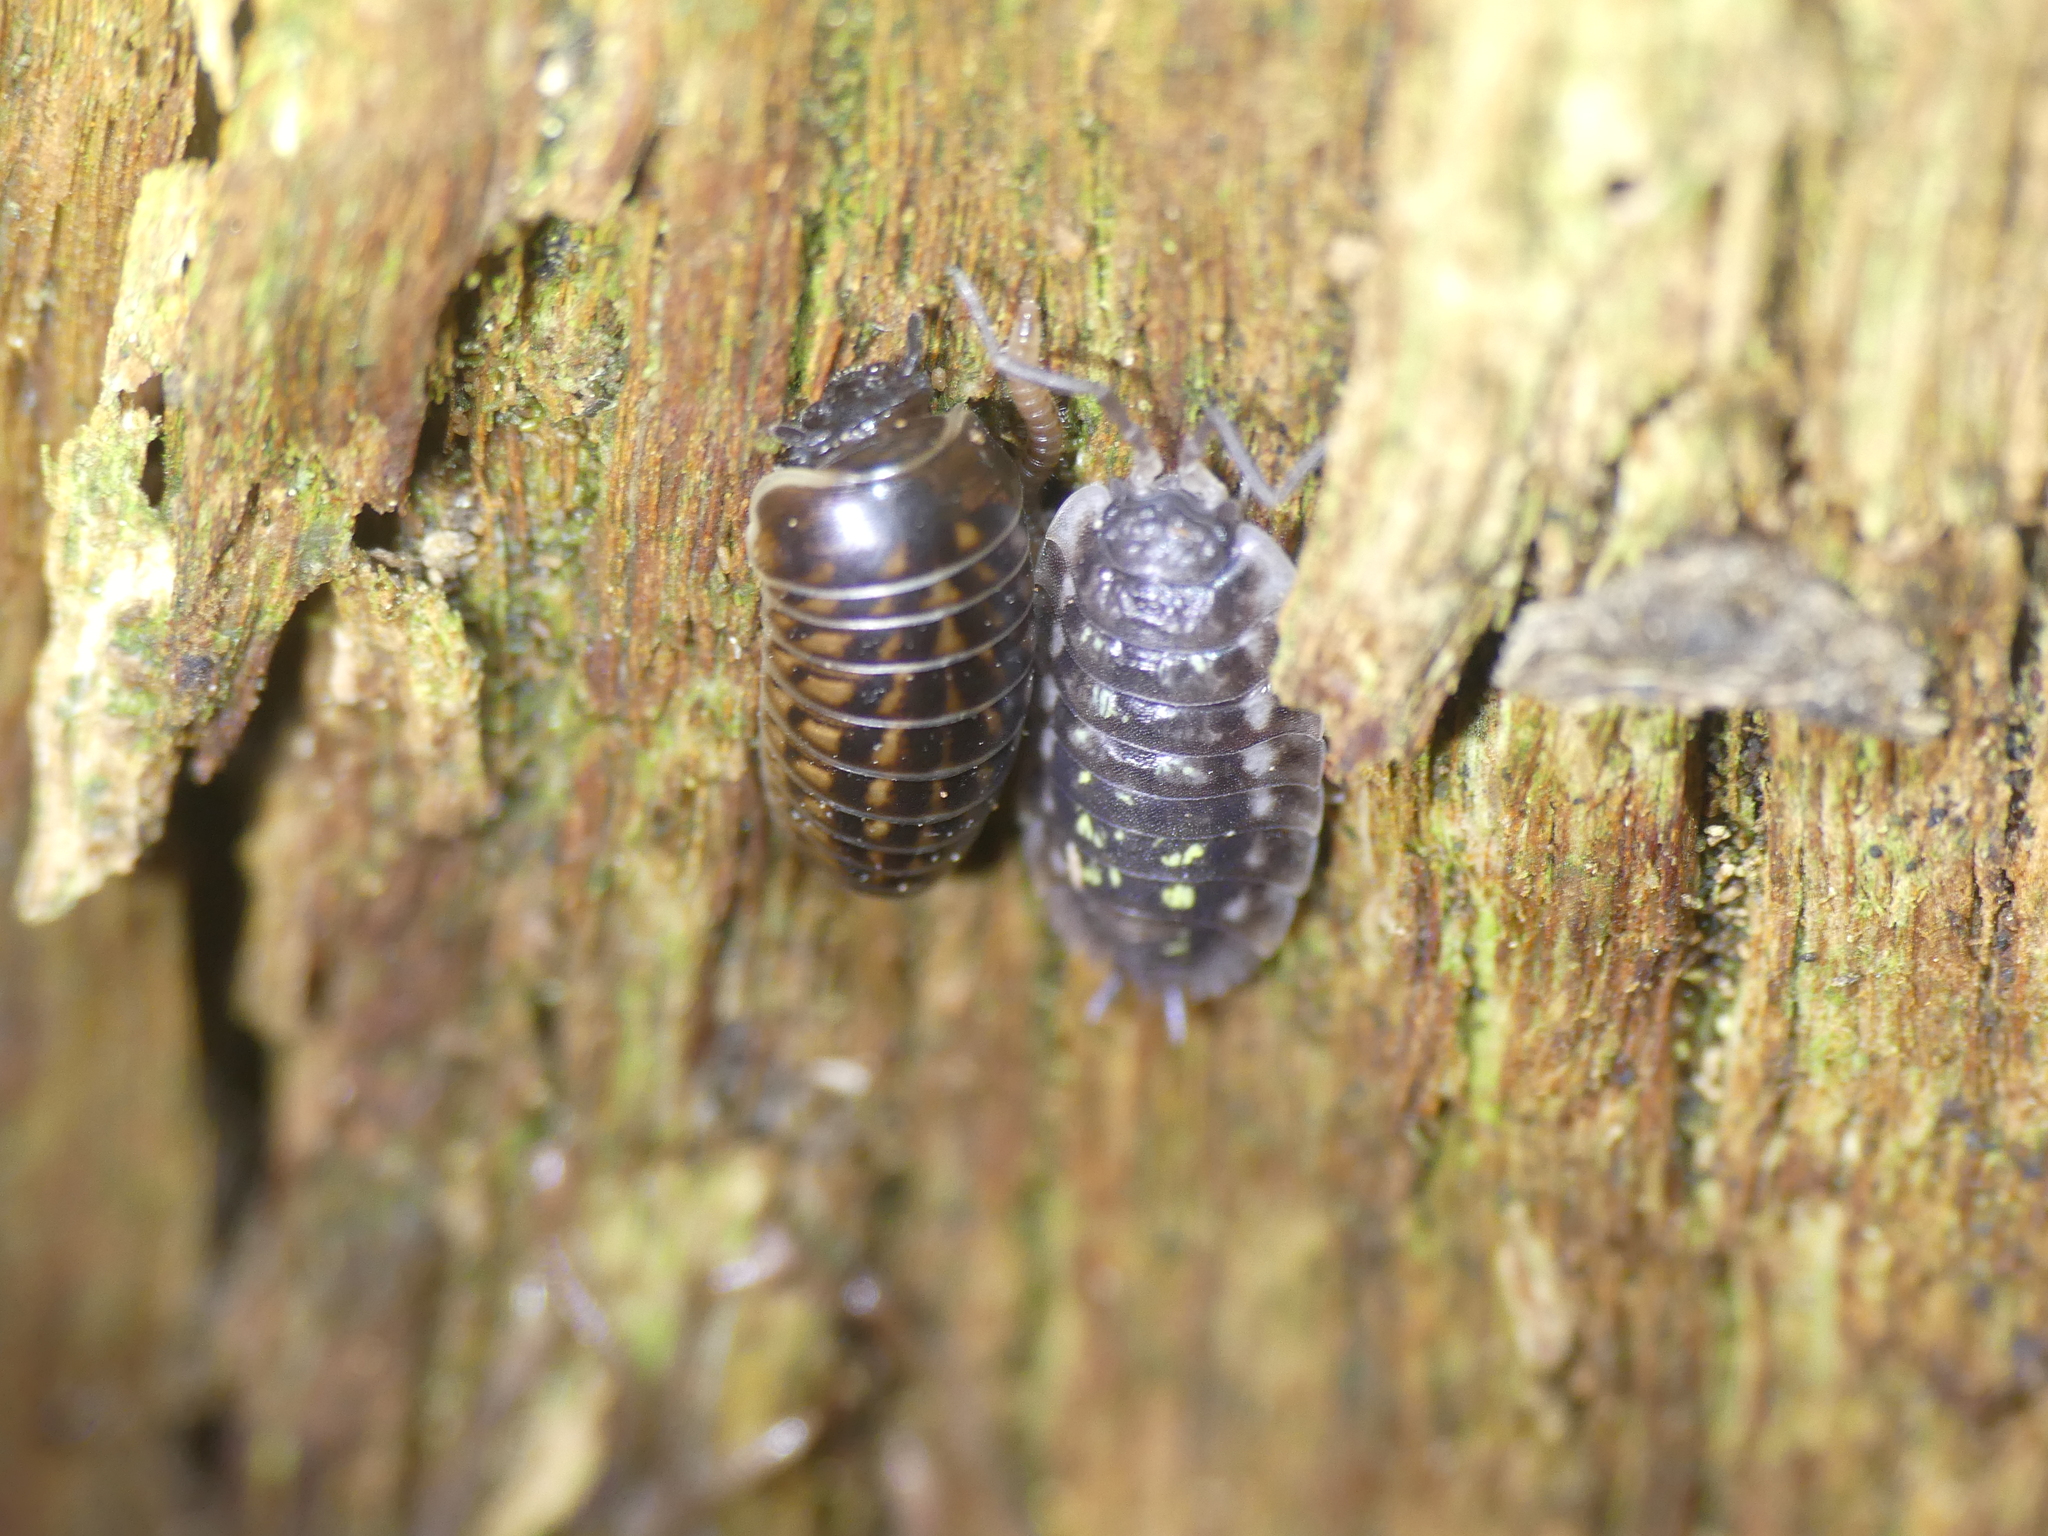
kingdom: Animalia
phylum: Arthropoda
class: Malacostraca
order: Isopoda
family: Oniscidae
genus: Oniscus
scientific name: Oniscus asellus
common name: Common shiny woodlouse
